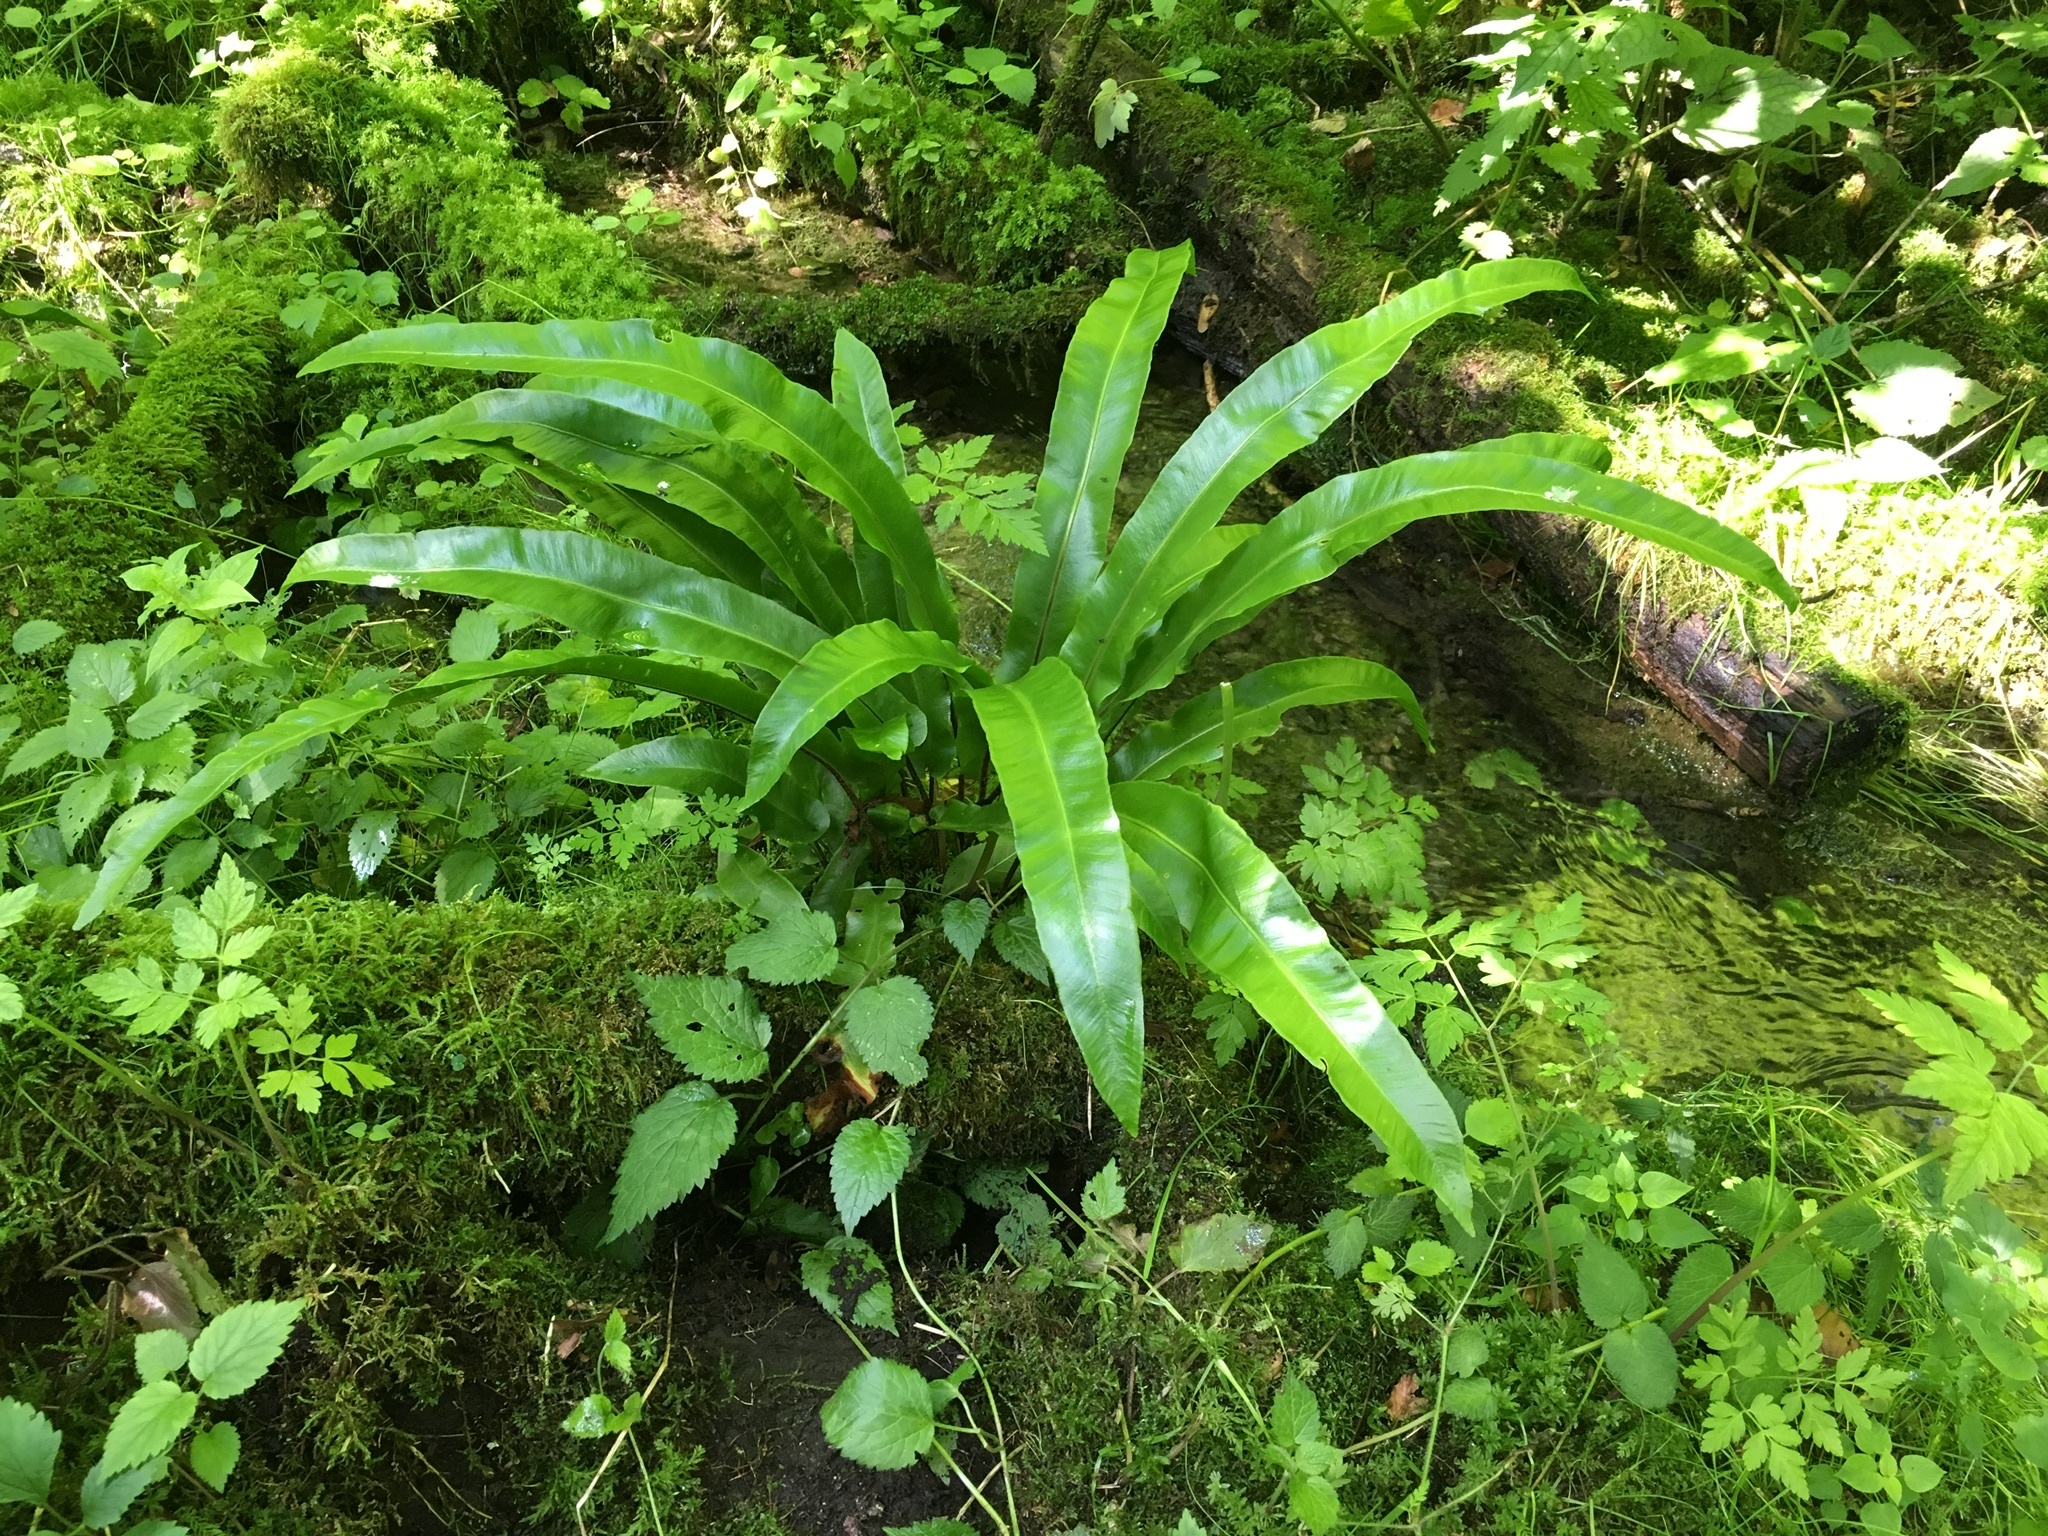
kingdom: Plantae
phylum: Tracheophyta
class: Polypodiopsida
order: Polypodiales
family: Aspleniaceae
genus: Asplenium
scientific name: Asplenium scolopendrium
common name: Hart's-tongue fern
